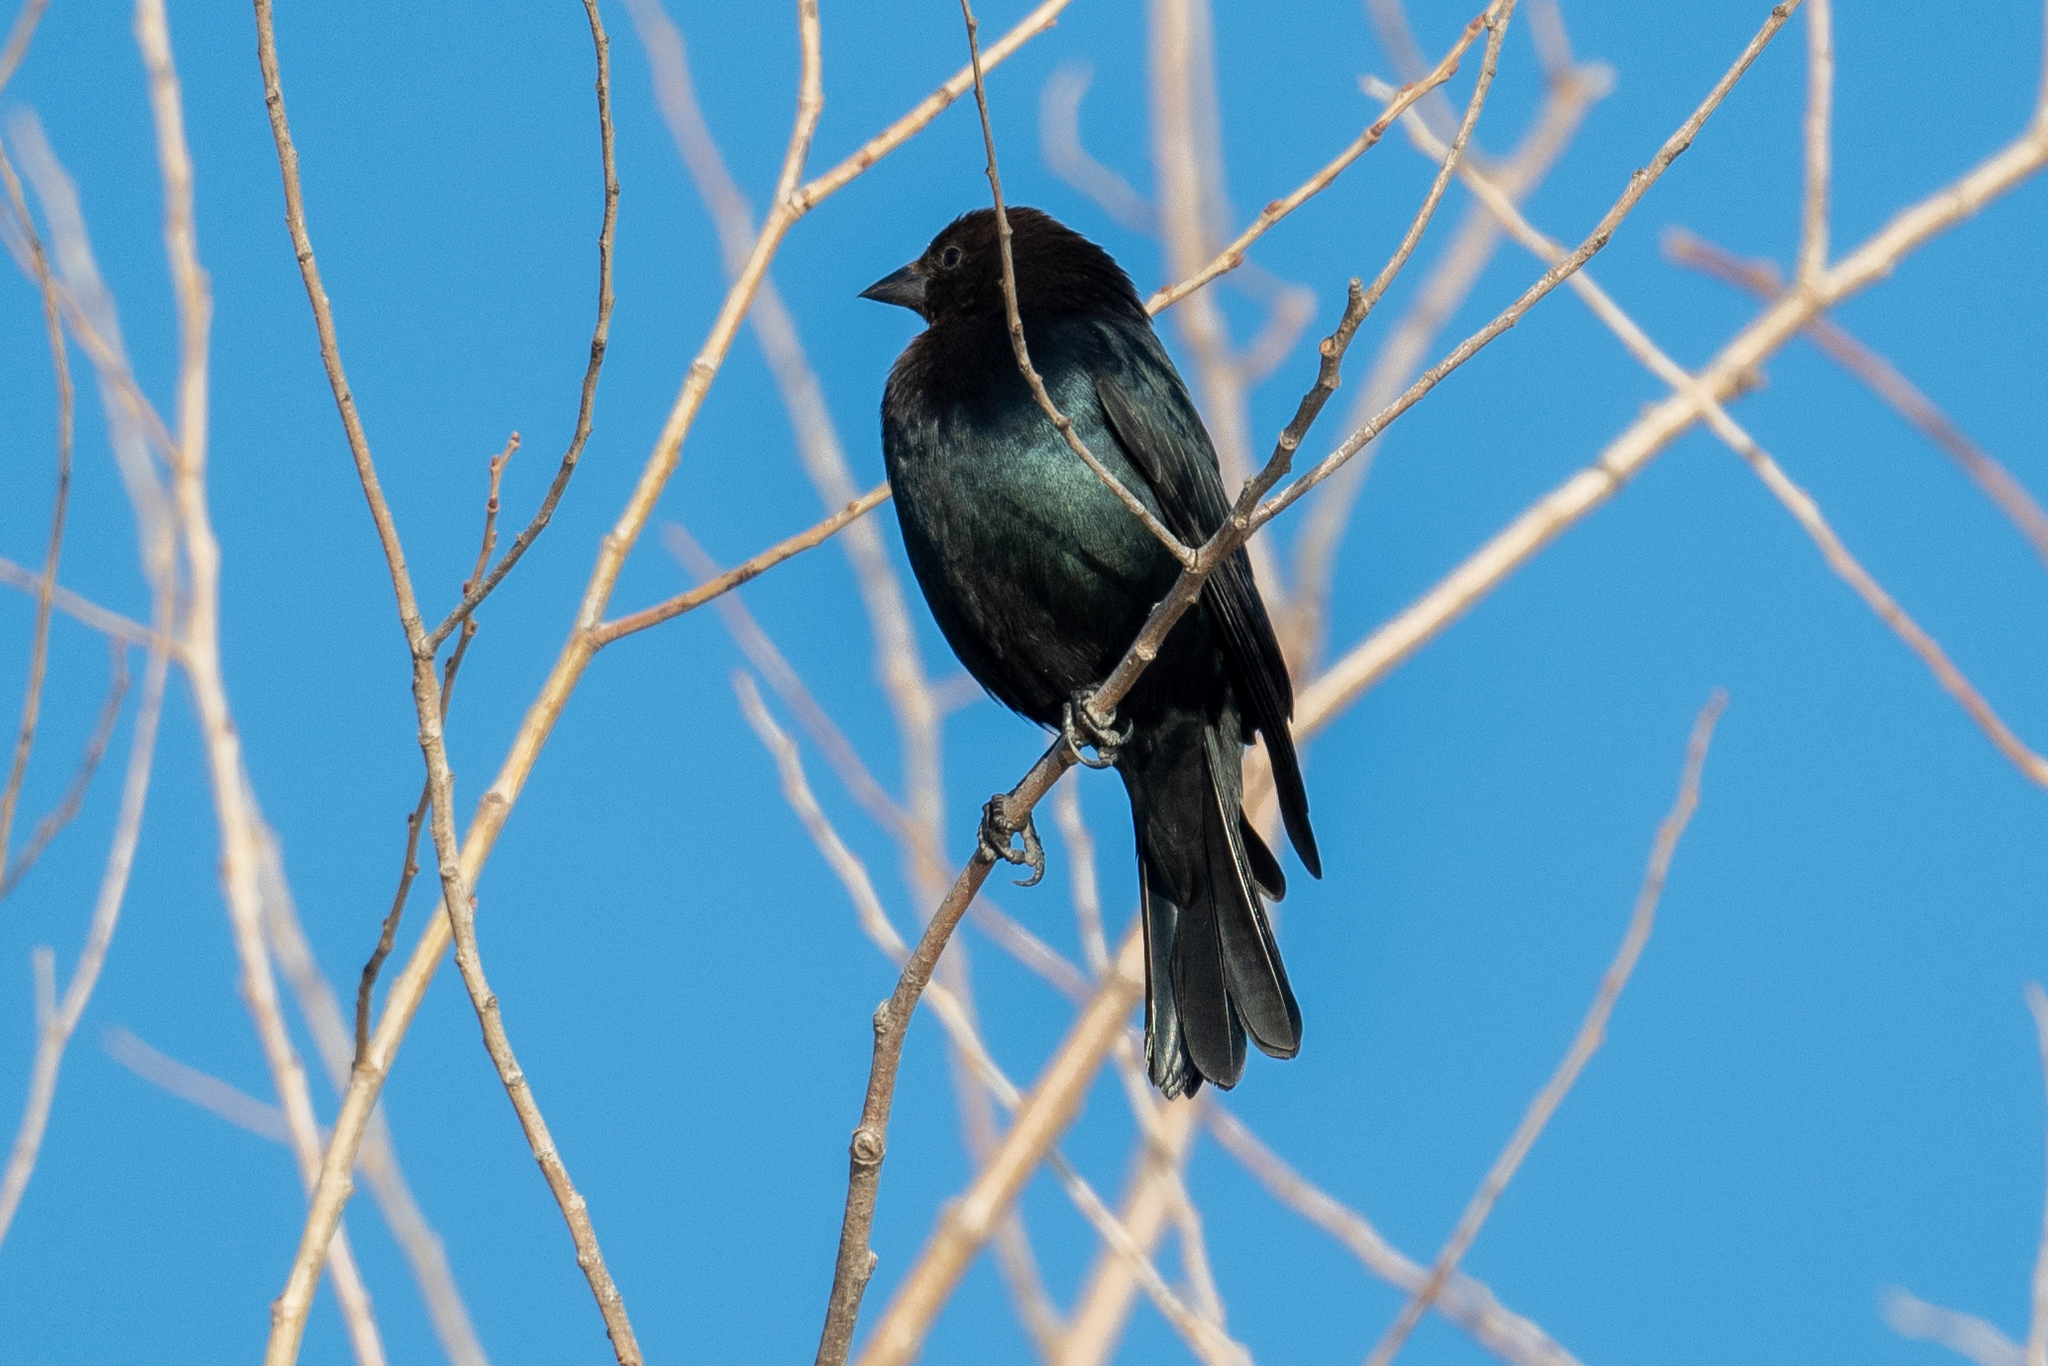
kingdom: Animalia
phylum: Chordata
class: Aves
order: Passeriformes
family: Icteridae
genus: Molothrus
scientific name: Molothrus ater
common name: Brown-headed cowbird
